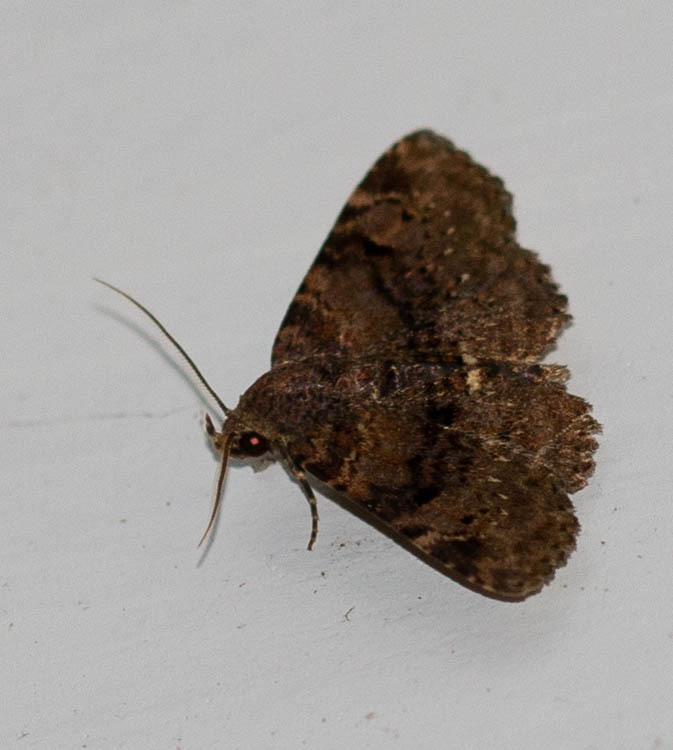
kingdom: Animalia
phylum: Arthropoda
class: Insecta
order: Lepidoptera
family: Erebidae
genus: Metalectra
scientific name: Metalectra quadrisignata
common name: Four-spotted fungus moth
